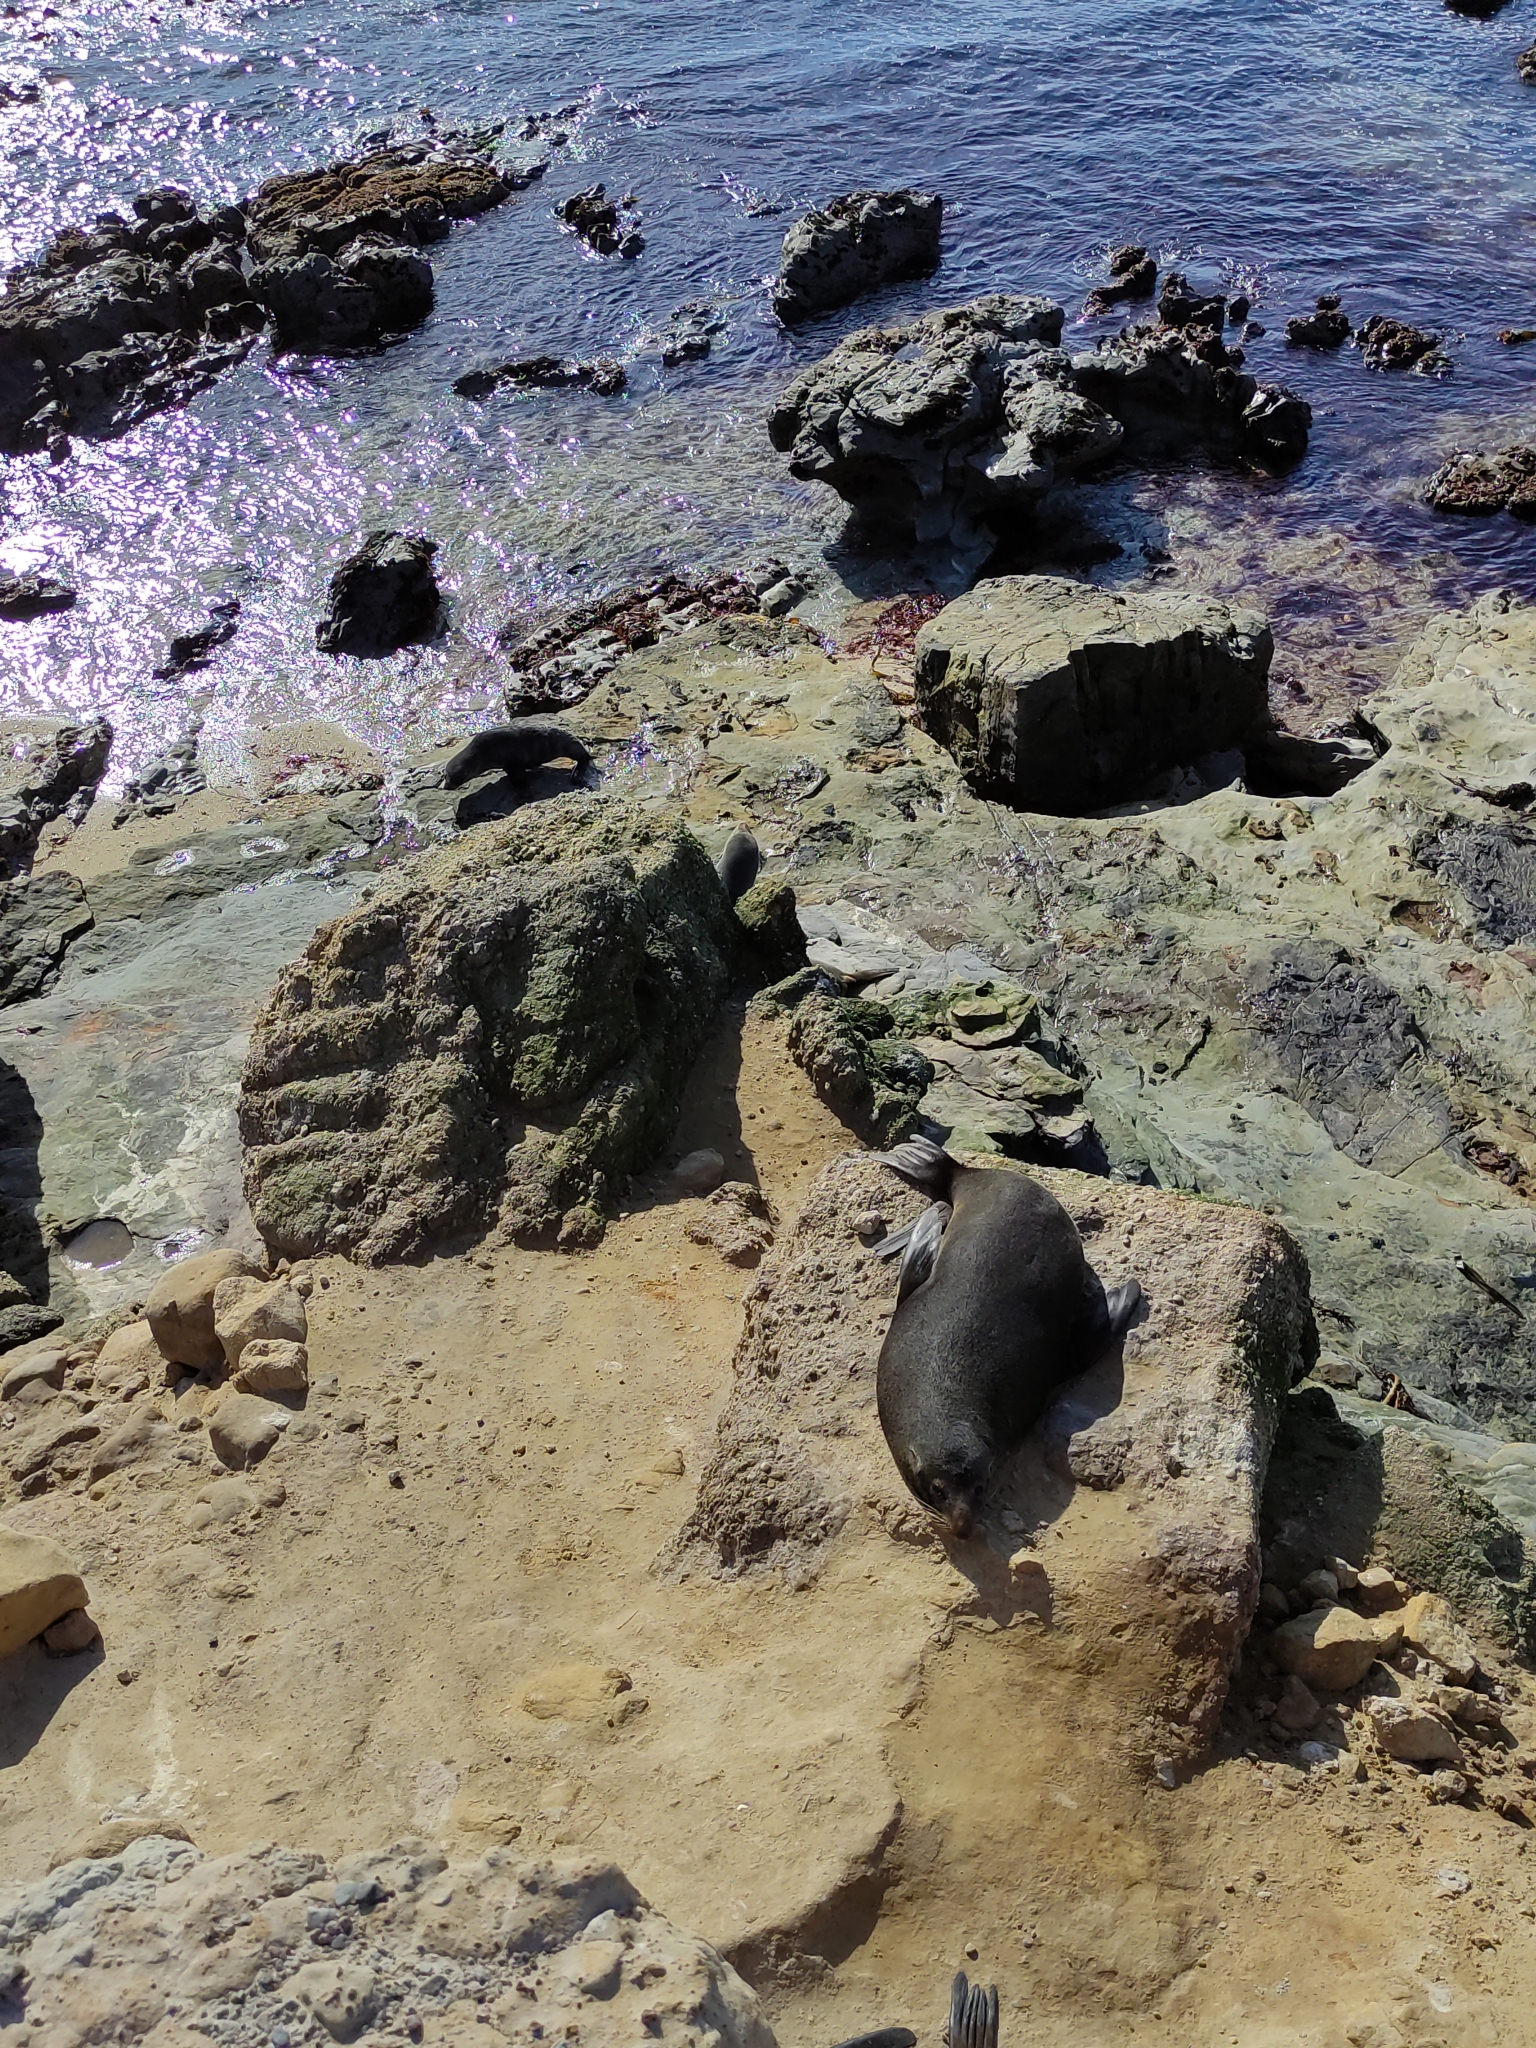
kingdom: Animalia
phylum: Chordata
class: Mammalia
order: Carnivora
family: Otariidae
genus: Arctocephalus
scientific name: Arctocephalus forsteri
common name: New zealand fur seal
